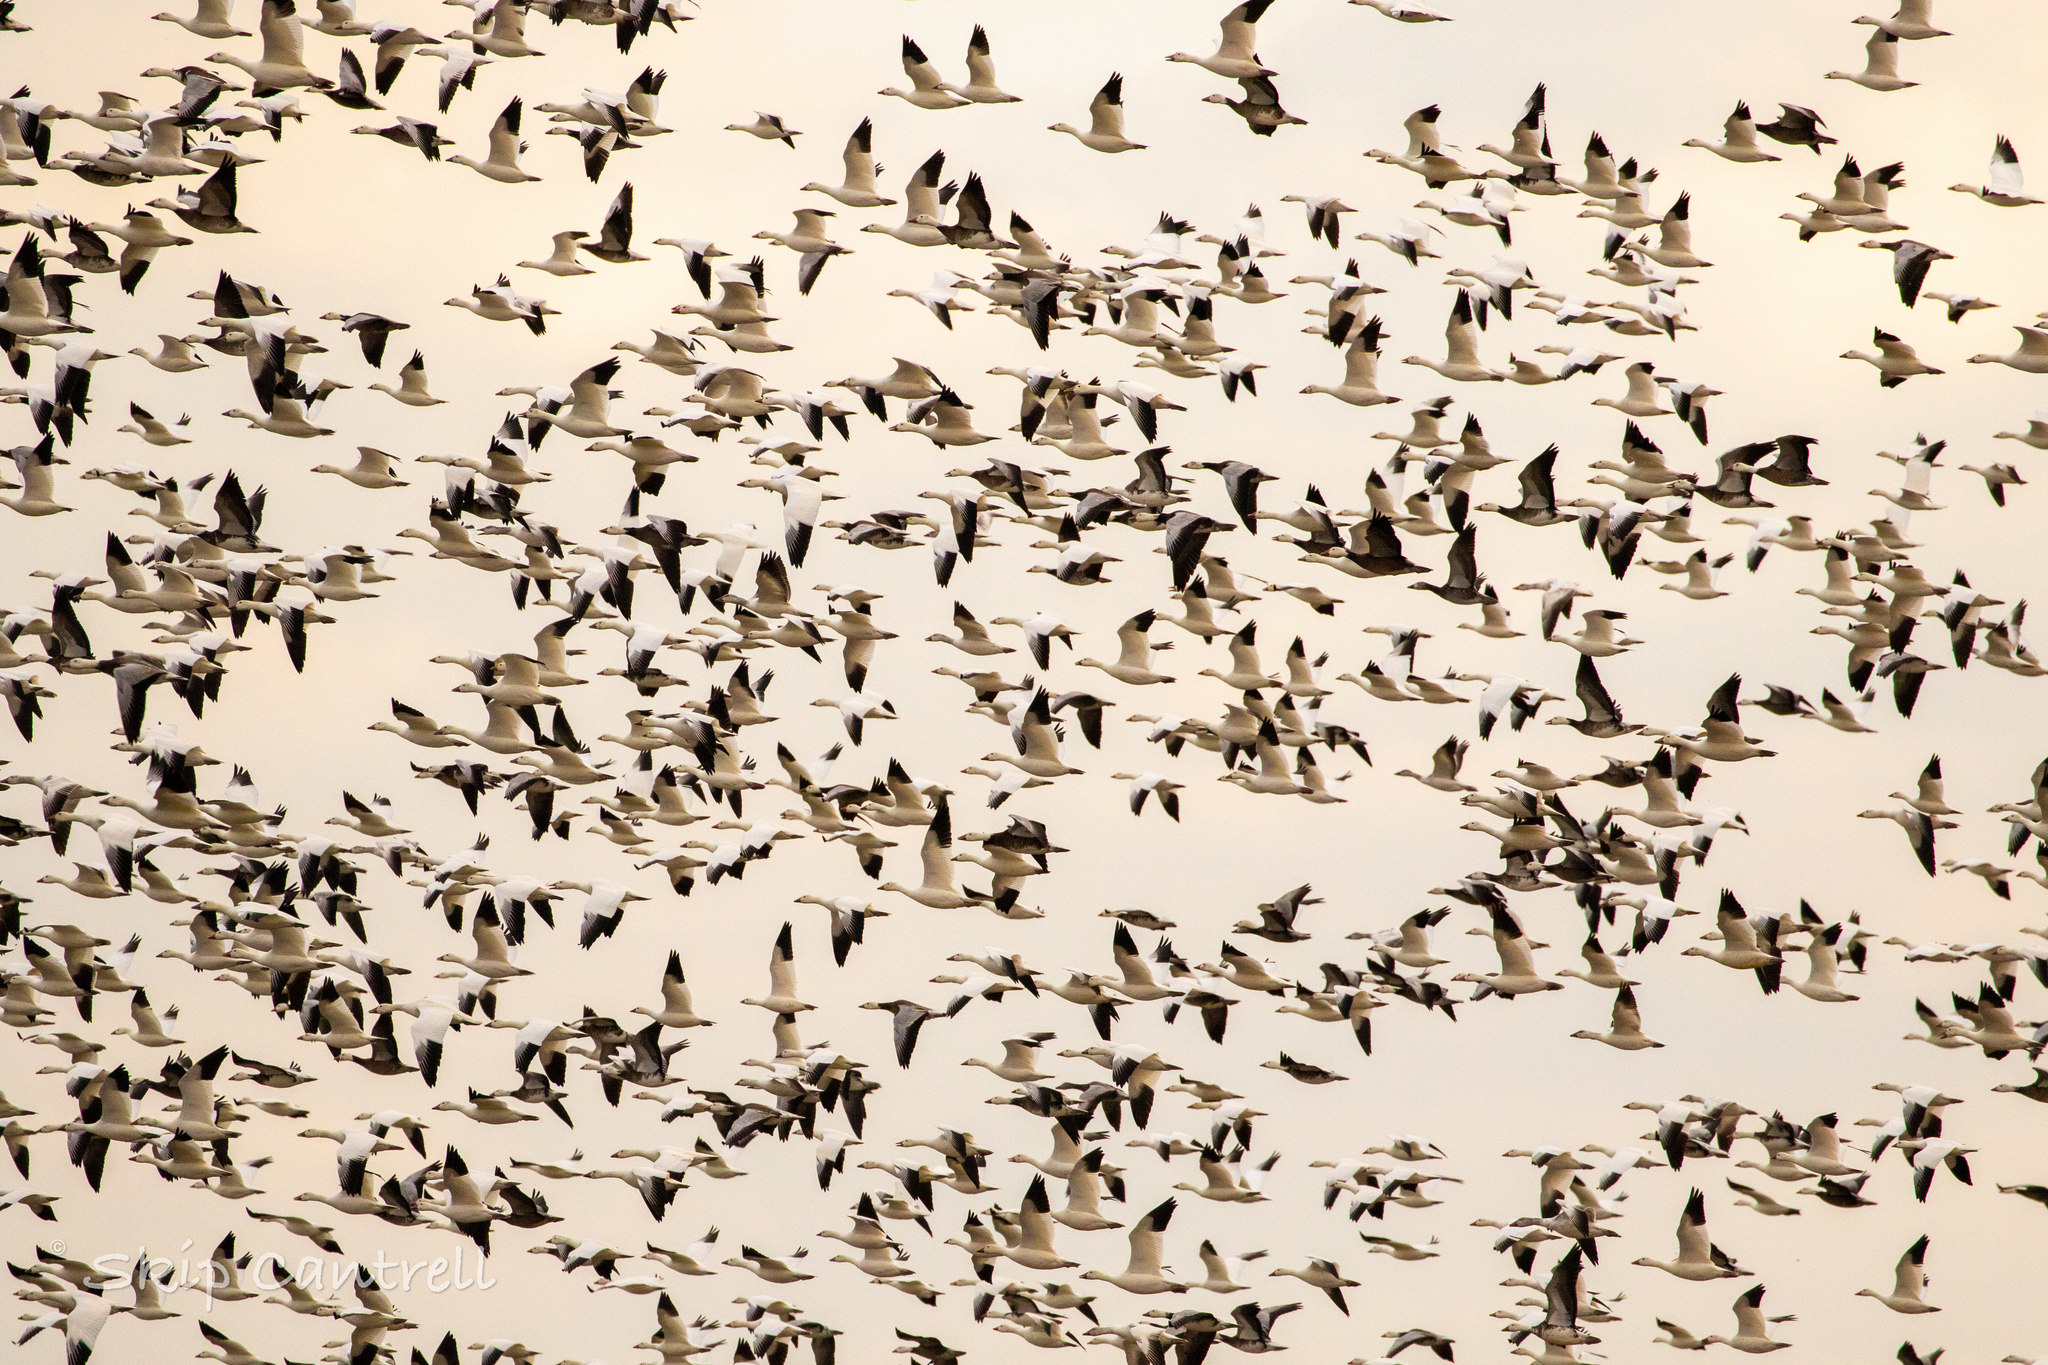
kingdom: Animalia
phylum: Chordata
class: Aves
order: Anseriformes
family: Anatidae
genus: Anser
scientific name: Anser caerulescens
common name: Snow goose
